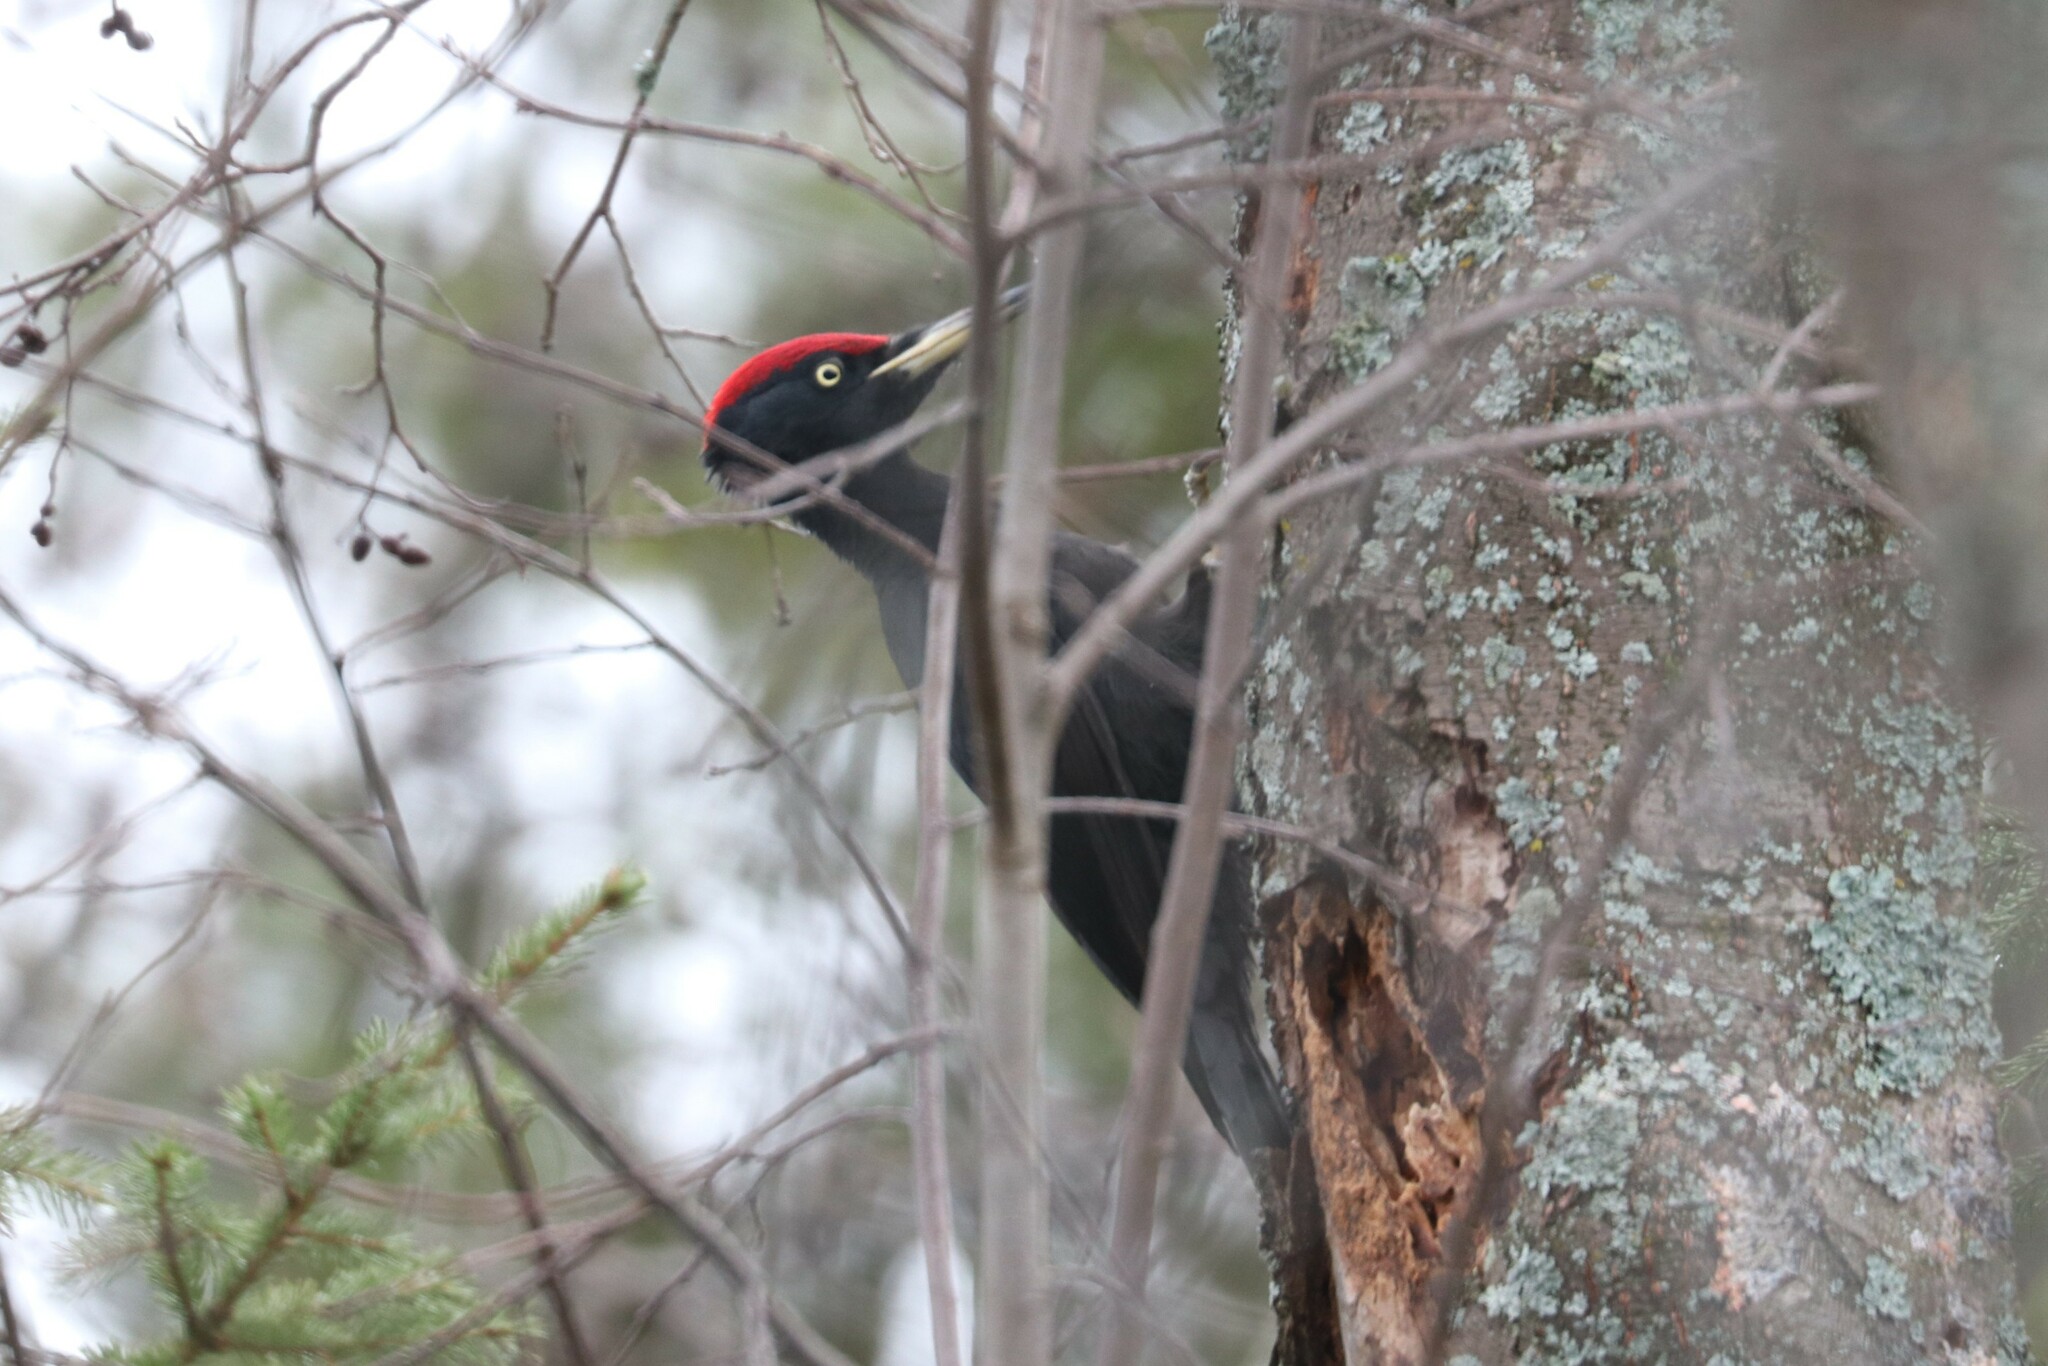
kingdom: Animalia
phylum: Chordata
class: Aves
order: Piciformes
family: Picidae
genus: Dryocopus
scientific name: Dryocopus martius
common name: Black woodpecker
